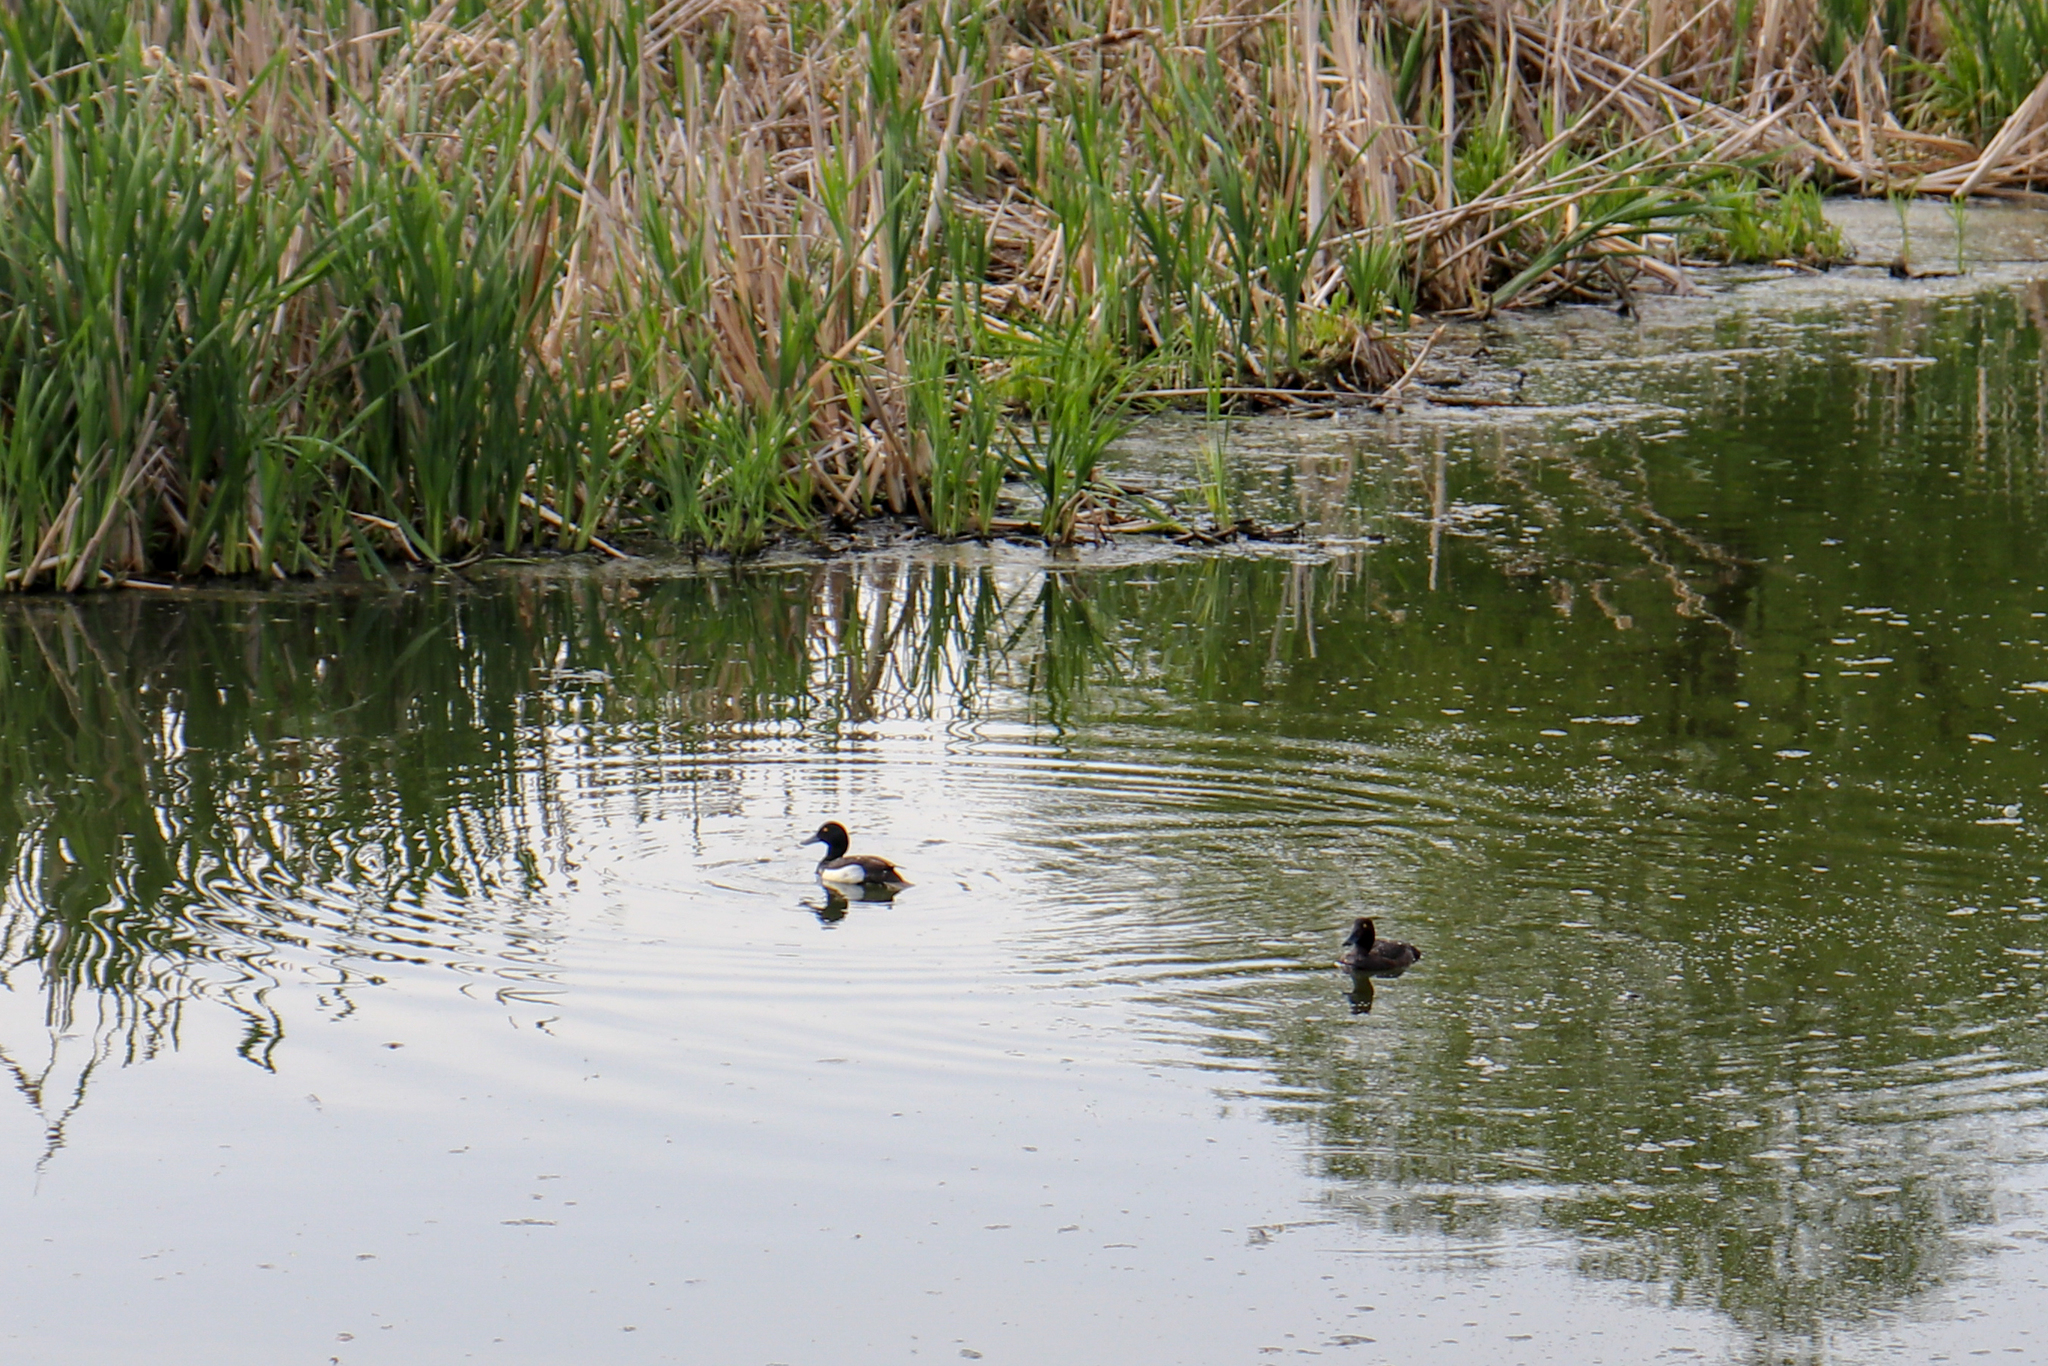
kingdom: Animalia
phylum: Chordata
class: Aves
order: Anseriformes
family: Anatidae
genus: Aythya
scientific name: Aythya fuligula
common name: Tufted duck
